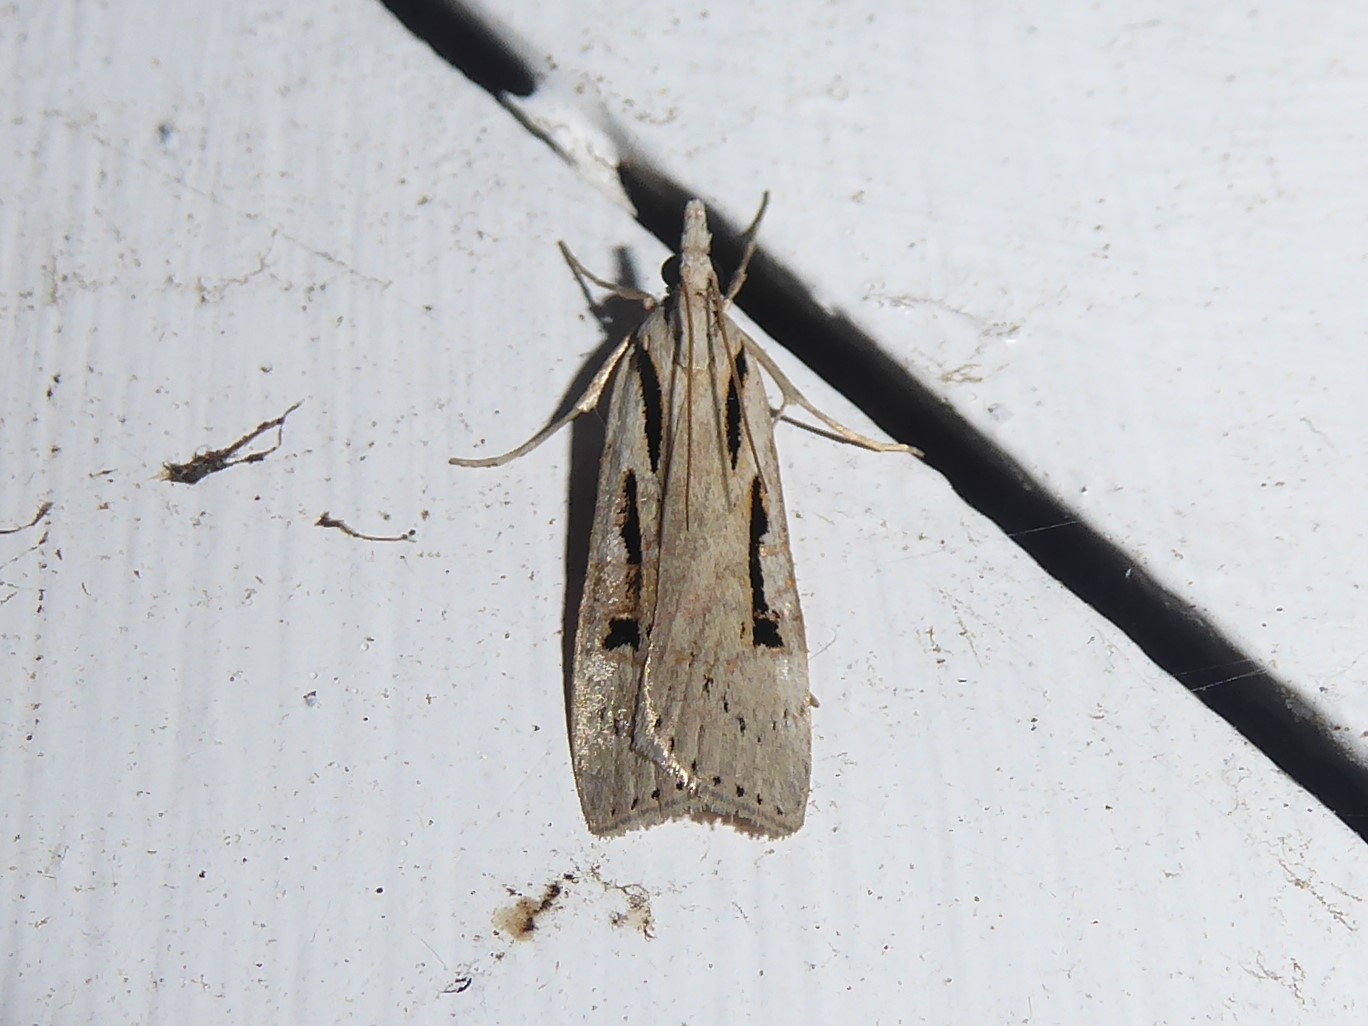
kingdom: Animalia
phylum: Arthropoda
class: Insecta
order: Lepidoptera
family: Crambidae
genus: Scoparia
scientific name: Scoparia rotuellus
